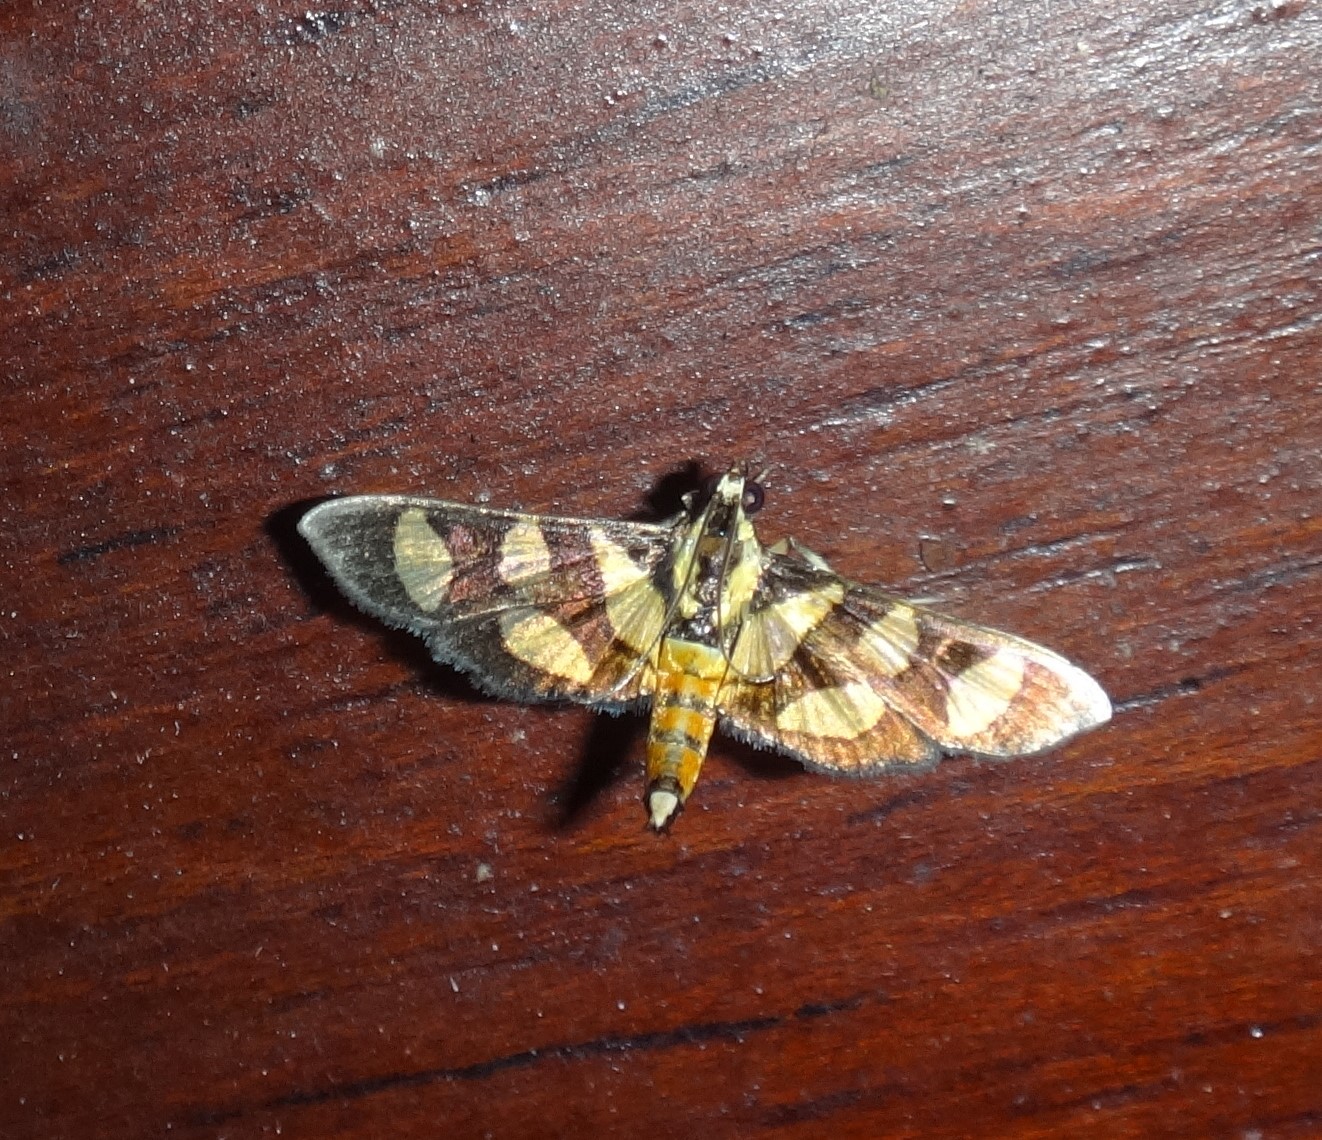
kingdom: Animalia
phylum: Arthropoda
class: Insecta
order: Lepidoptera
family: Crambidae
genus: Syngamia
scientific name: Syngamia florella
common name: Orange-spotted flower moth
